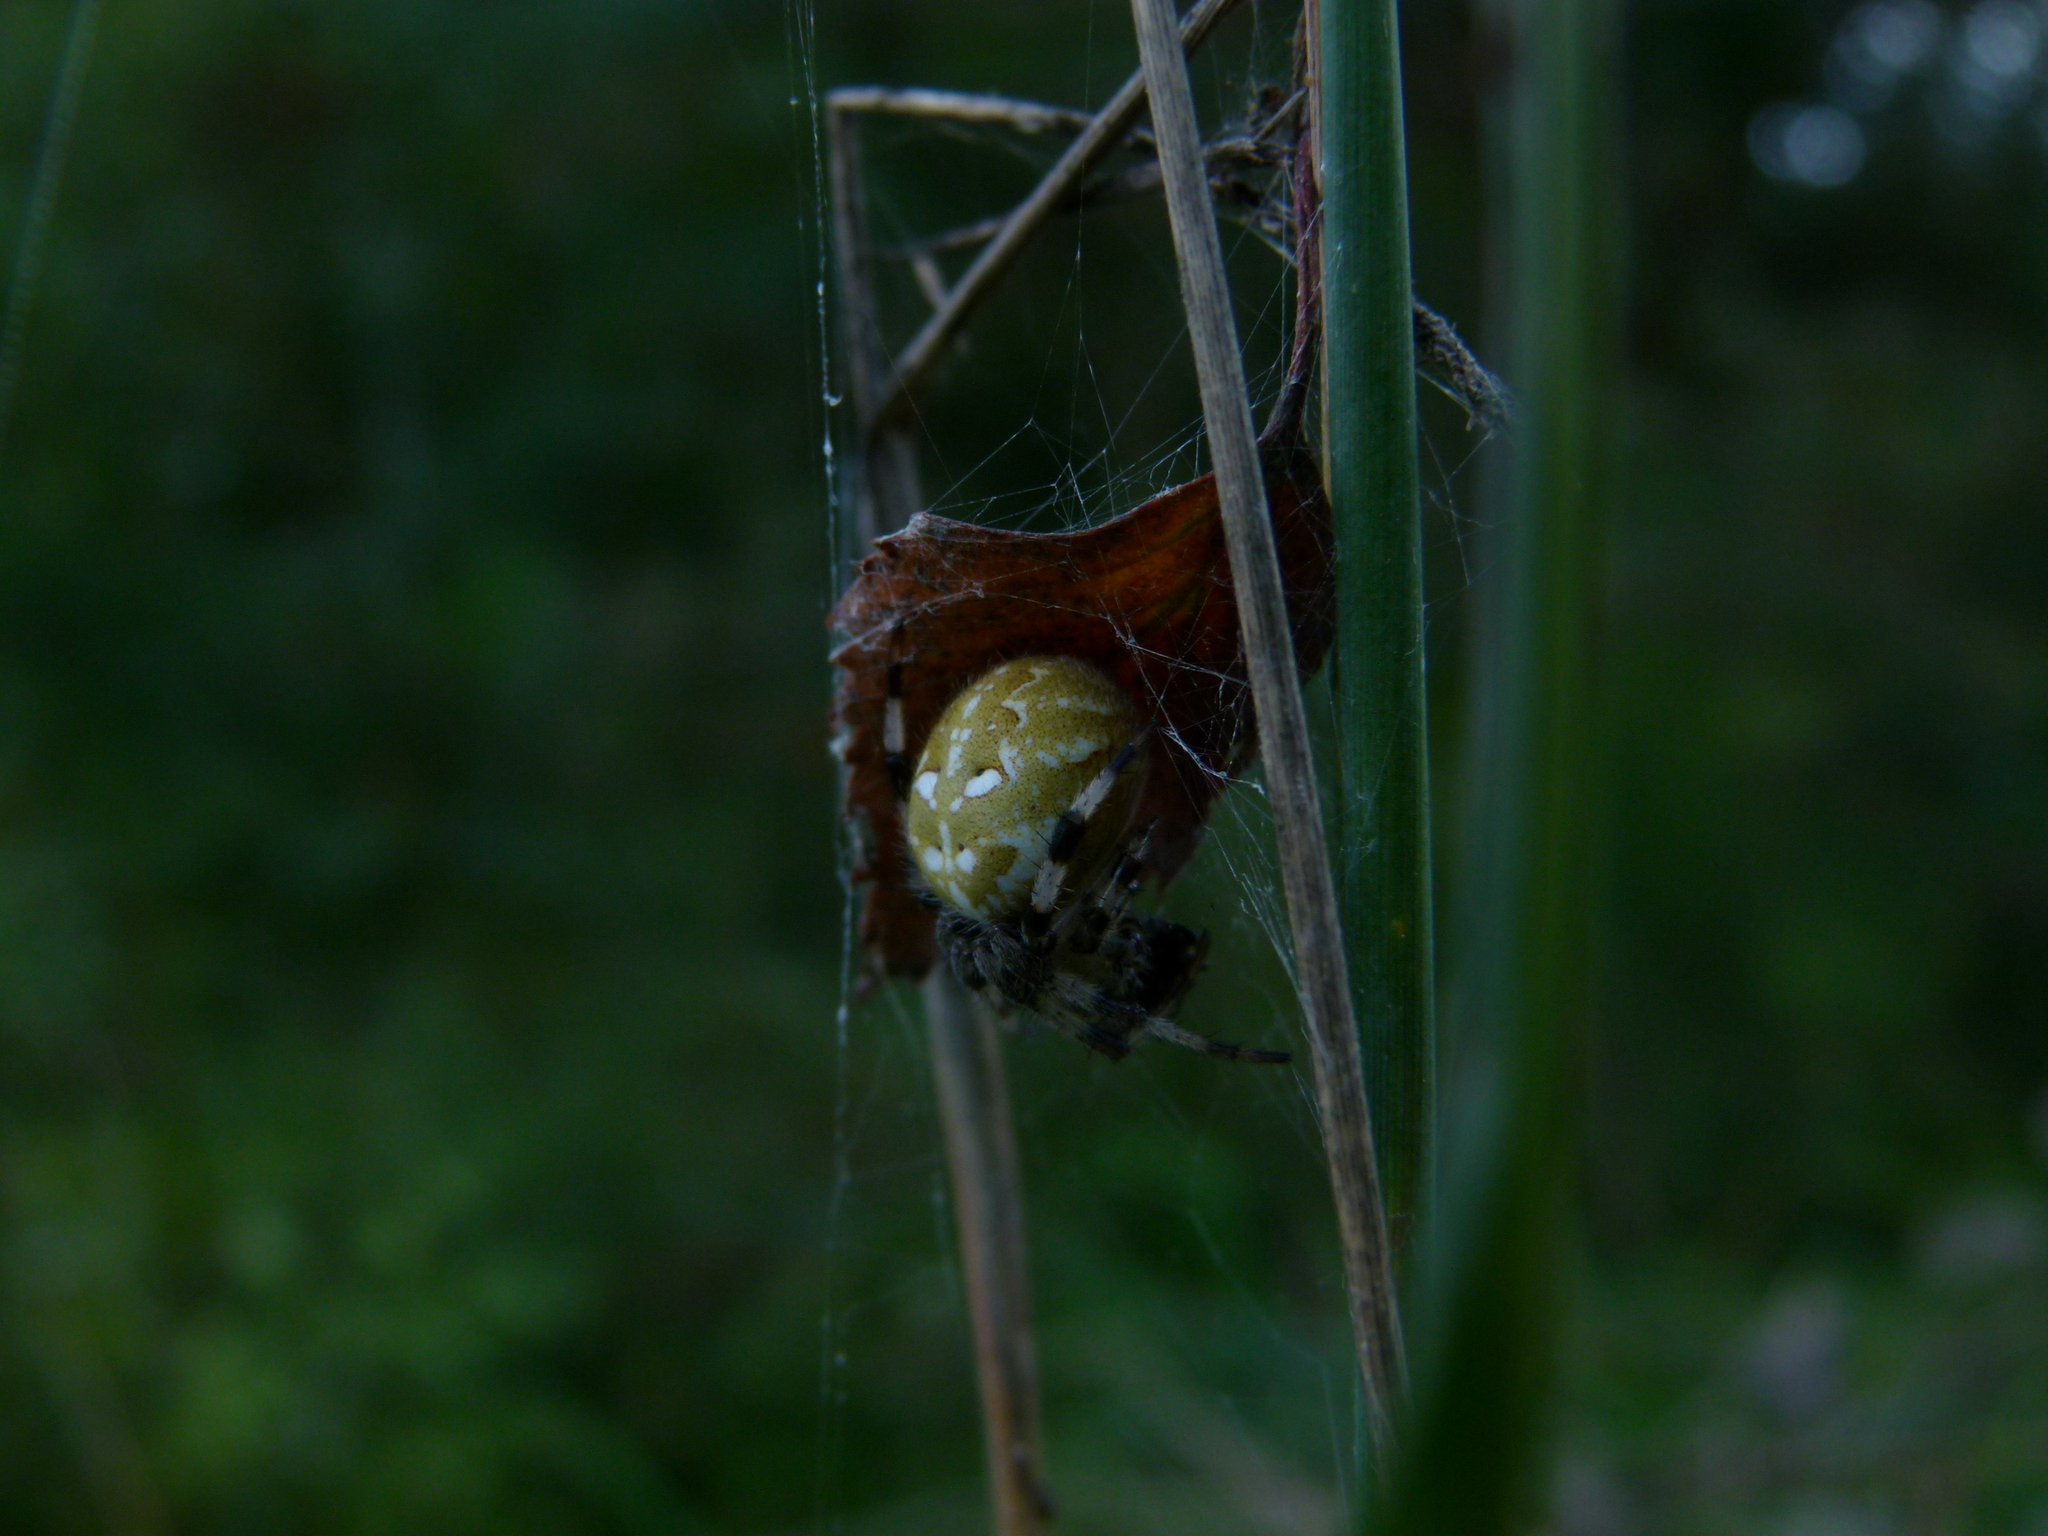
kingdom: Animalia
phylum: Arthropoda
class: Arachnida
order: Araneae
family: Araneidae
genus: Araneus
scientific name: Araneus quadratus
